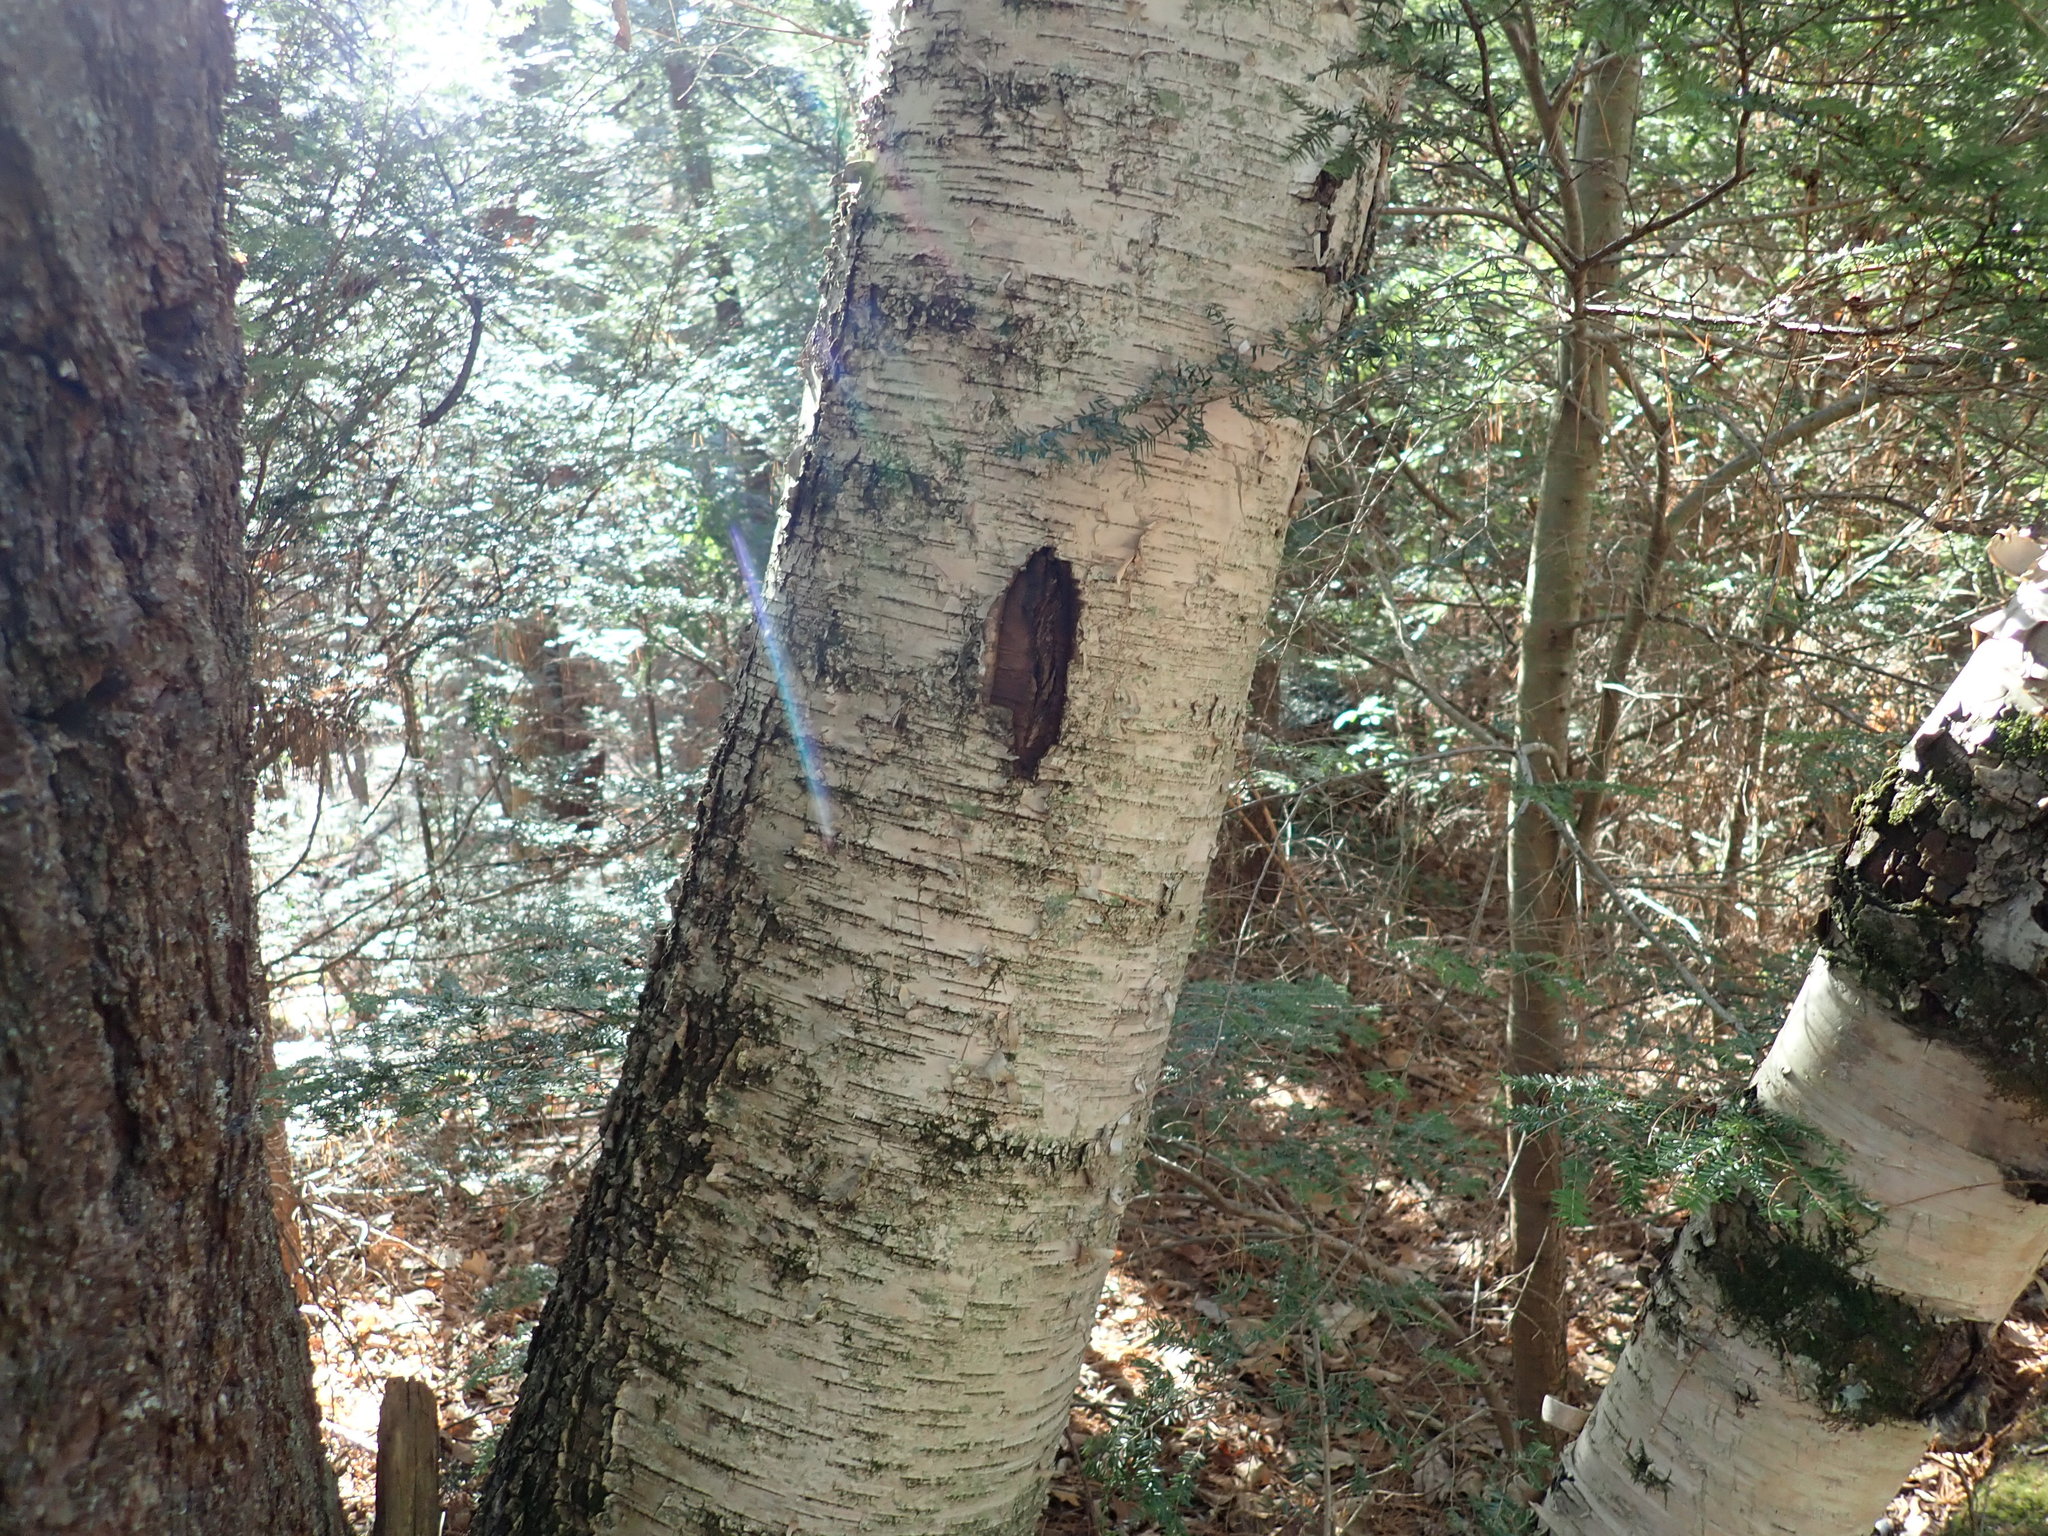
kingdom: Plantae
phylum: Tracheophyta
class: Magnoliopsida
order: Fagales
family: Betulaceae
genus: Betula
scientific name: Betula papyrifera
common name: Paper birch
